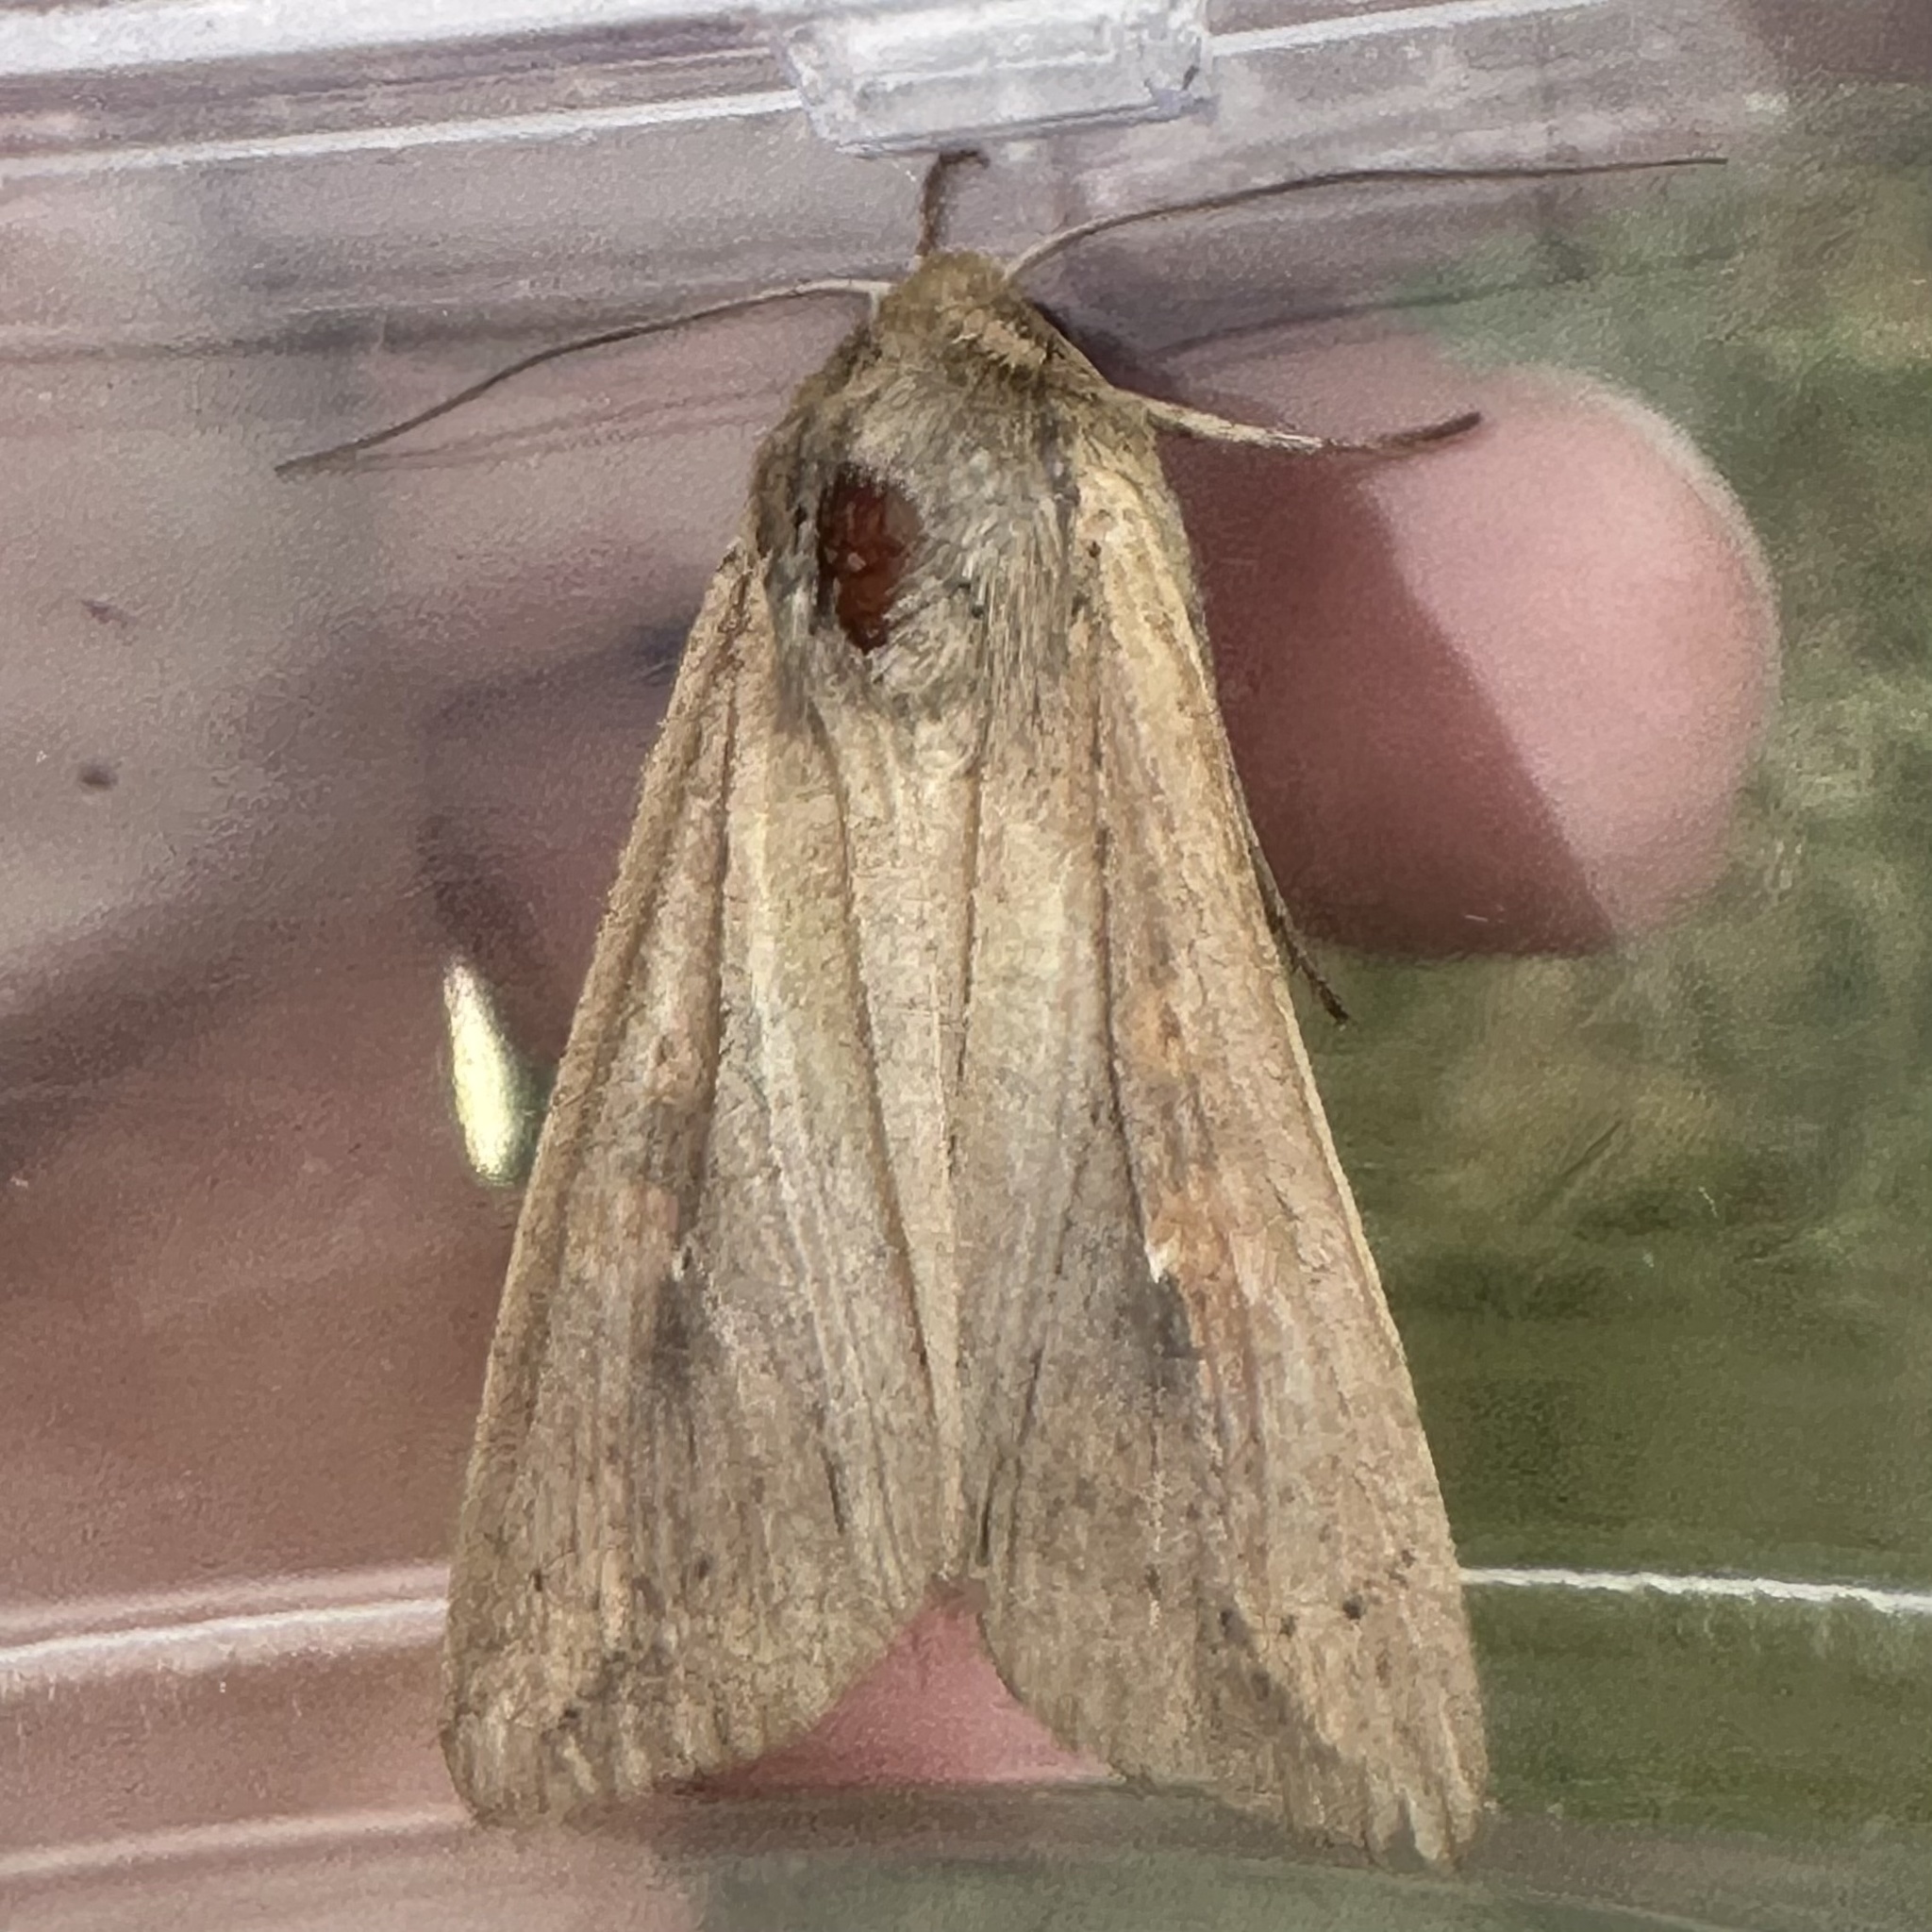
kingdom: Animalia
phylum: Arthropoda
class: Insecta
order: Lepidoptera
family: Noctuidae
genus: Mythimna
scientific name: Mythimna unipuncta
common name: White-speck
